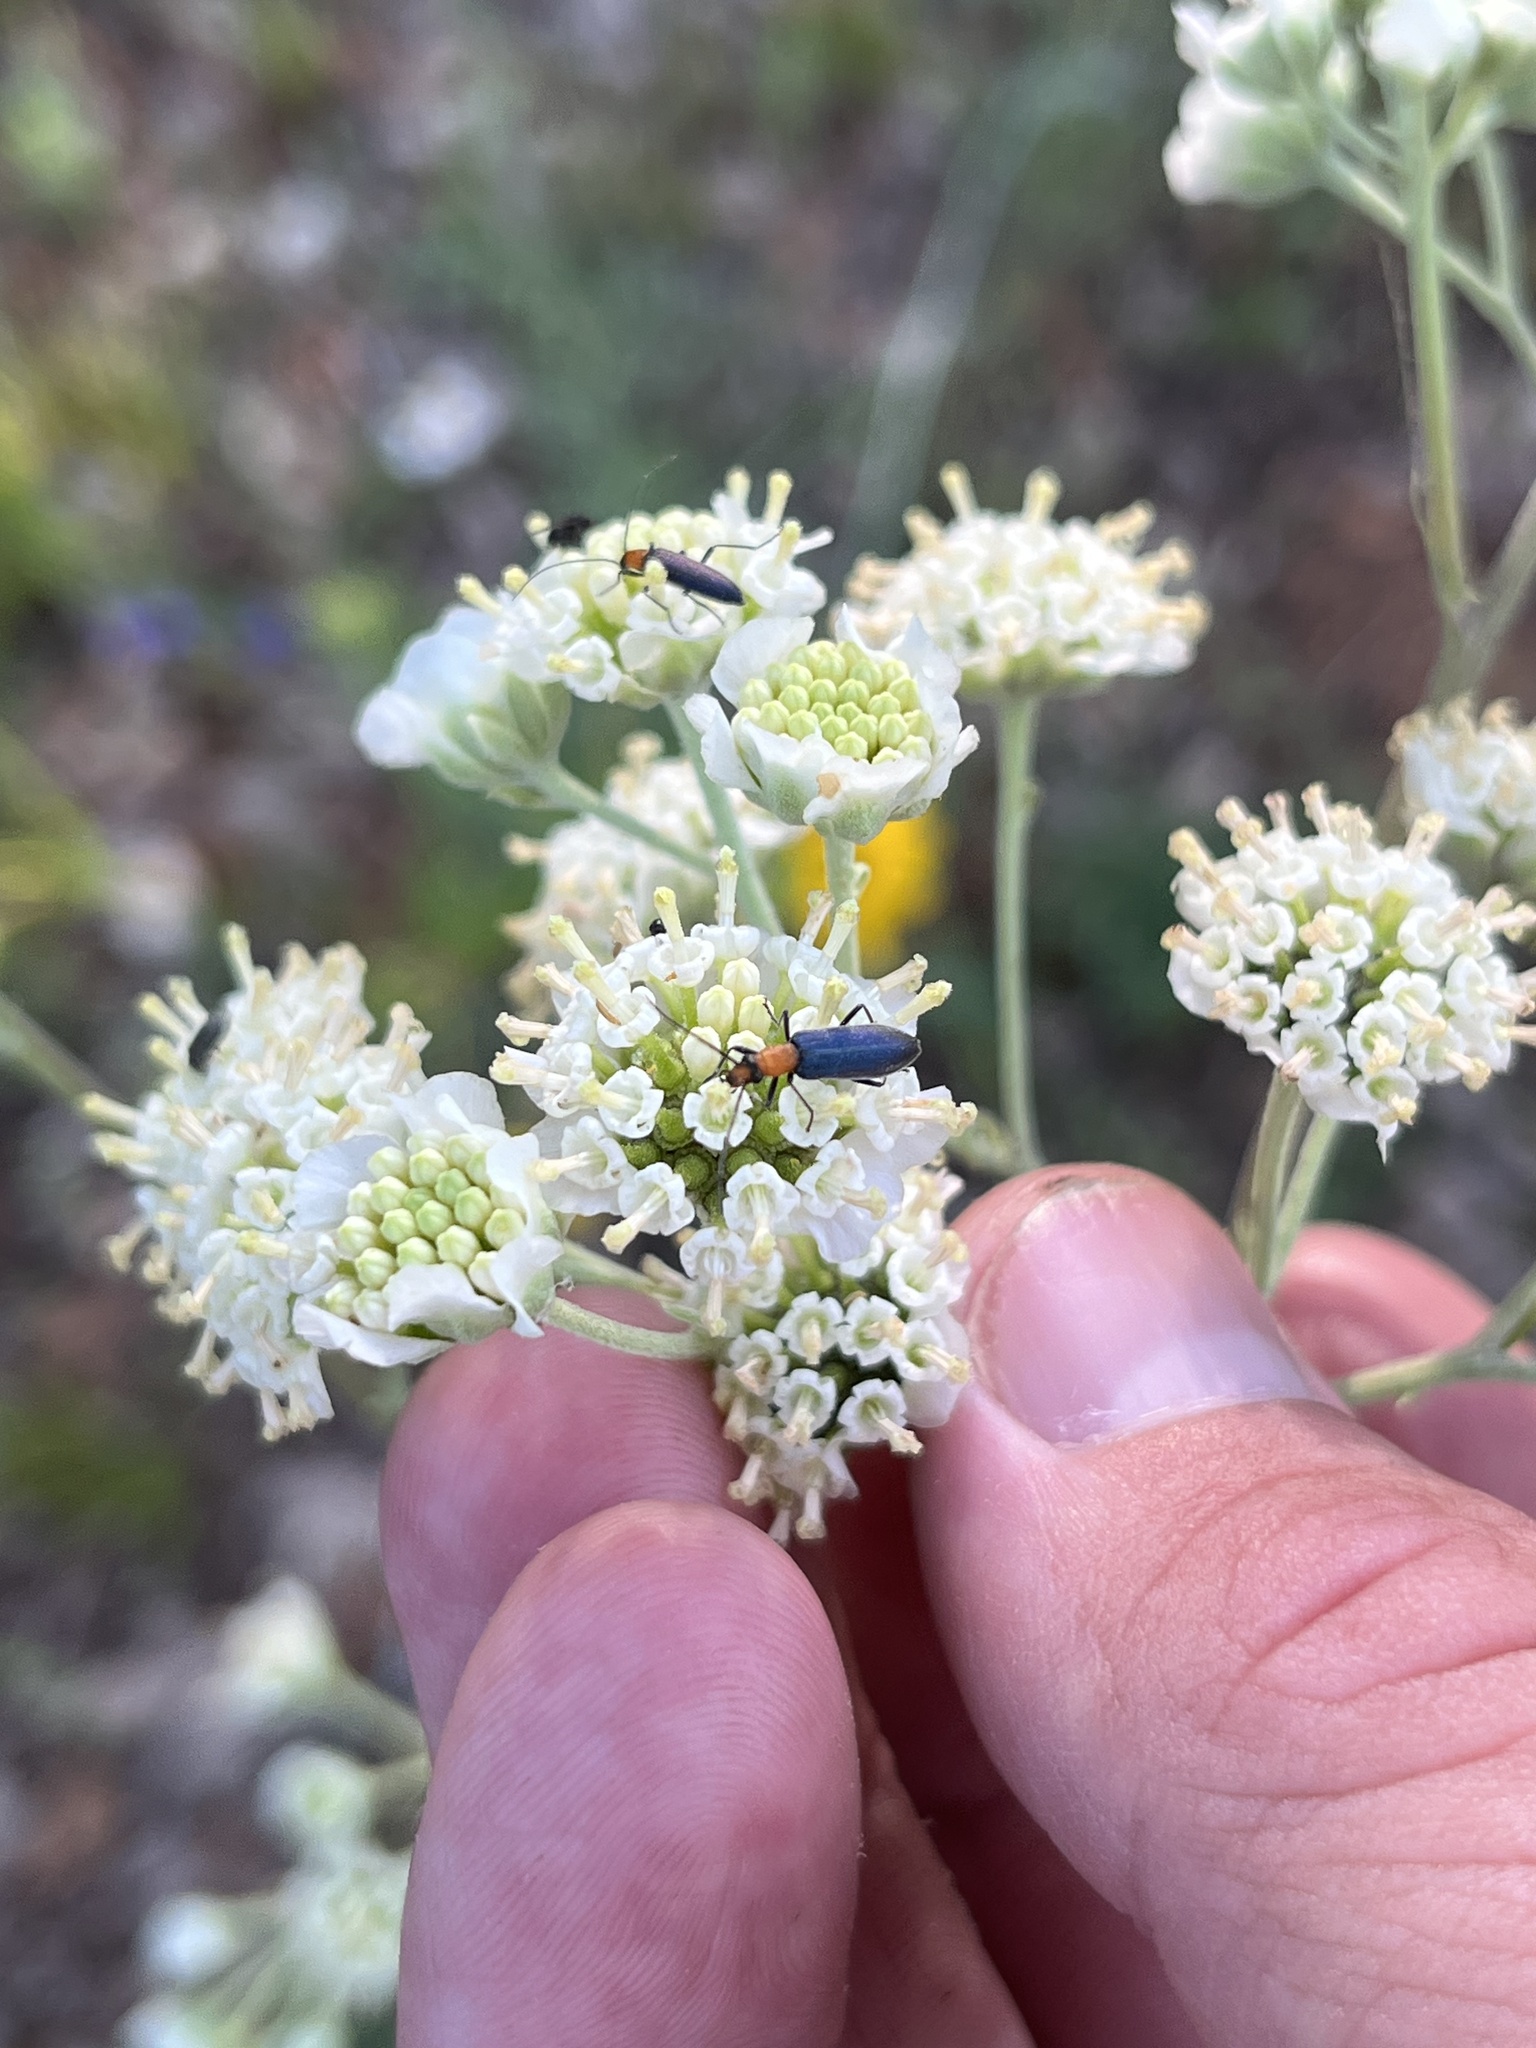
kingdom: Animalia
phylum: Arthropoda
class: Insecta
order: Coleoptera
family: Oedemeridae
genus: Heliocis
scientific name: Heliocis repanda
